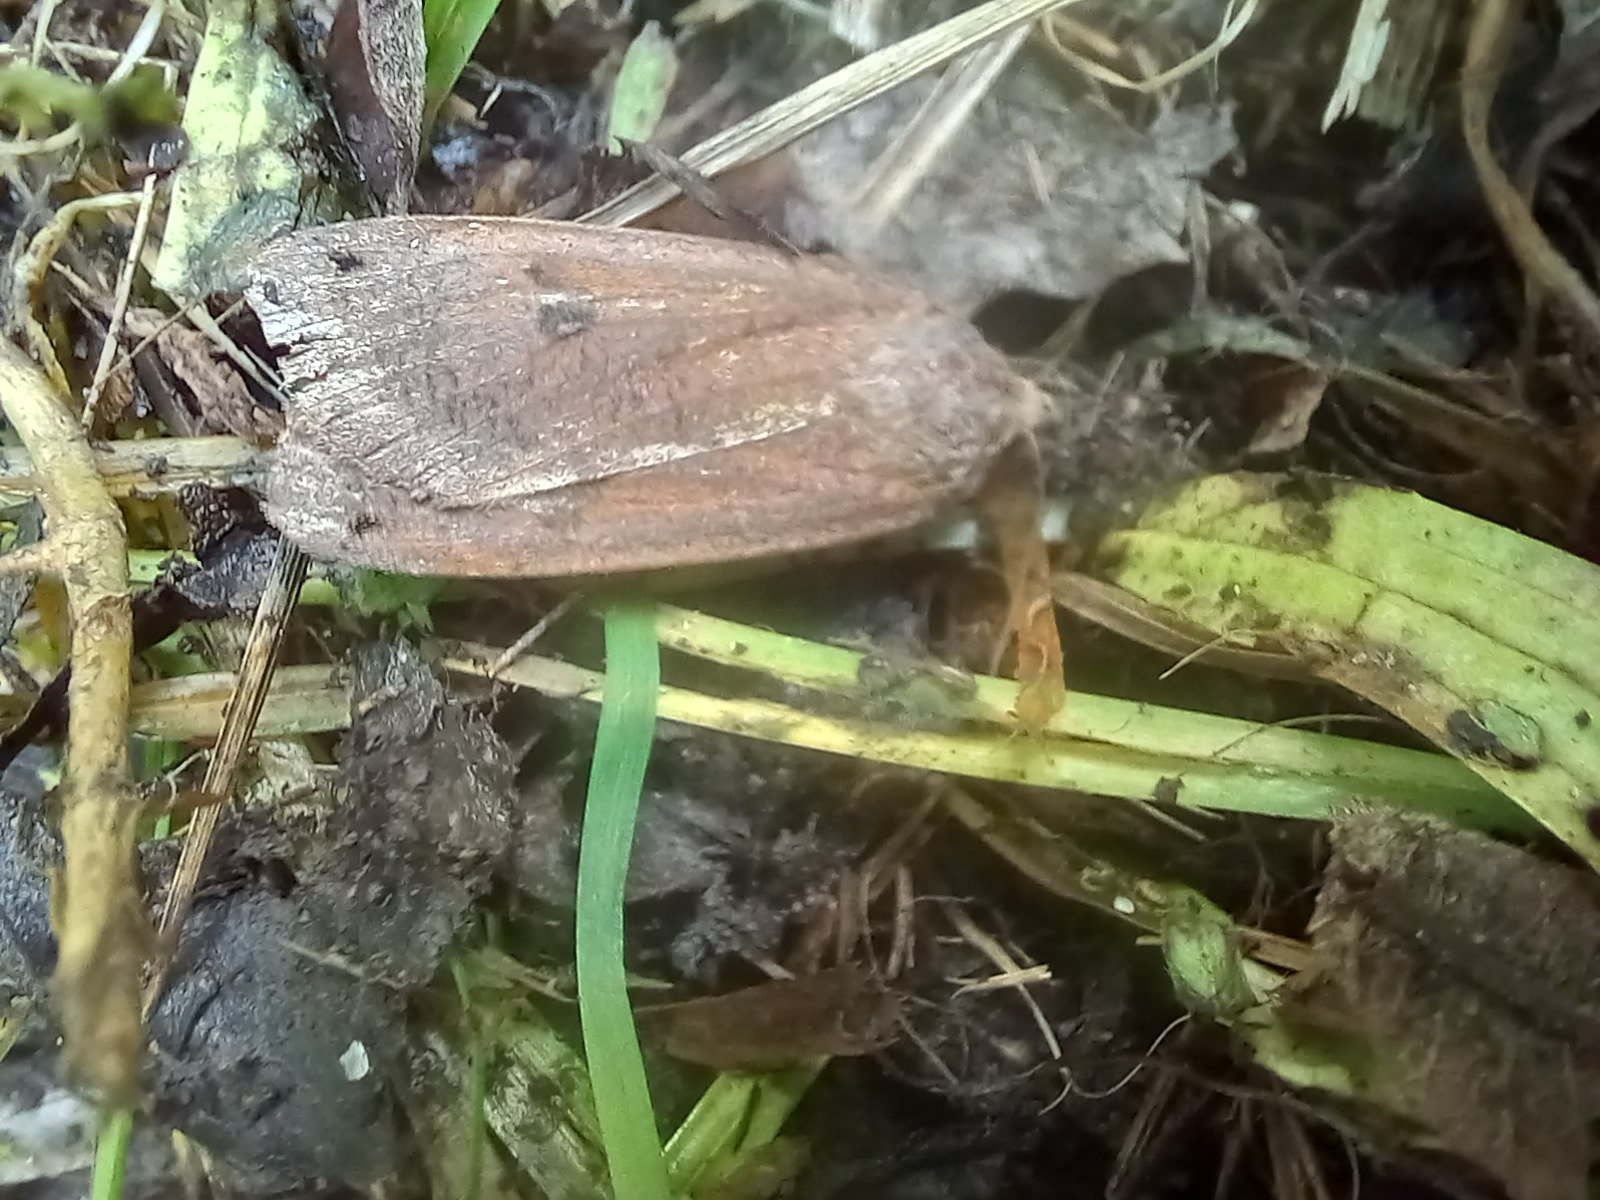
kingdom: Animalia
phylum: Arthropoda
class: Insecta
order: Lepidoptera
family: Noctuidae
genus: Noctua
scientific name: Noctua pronuba
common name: Large yellow underwing
